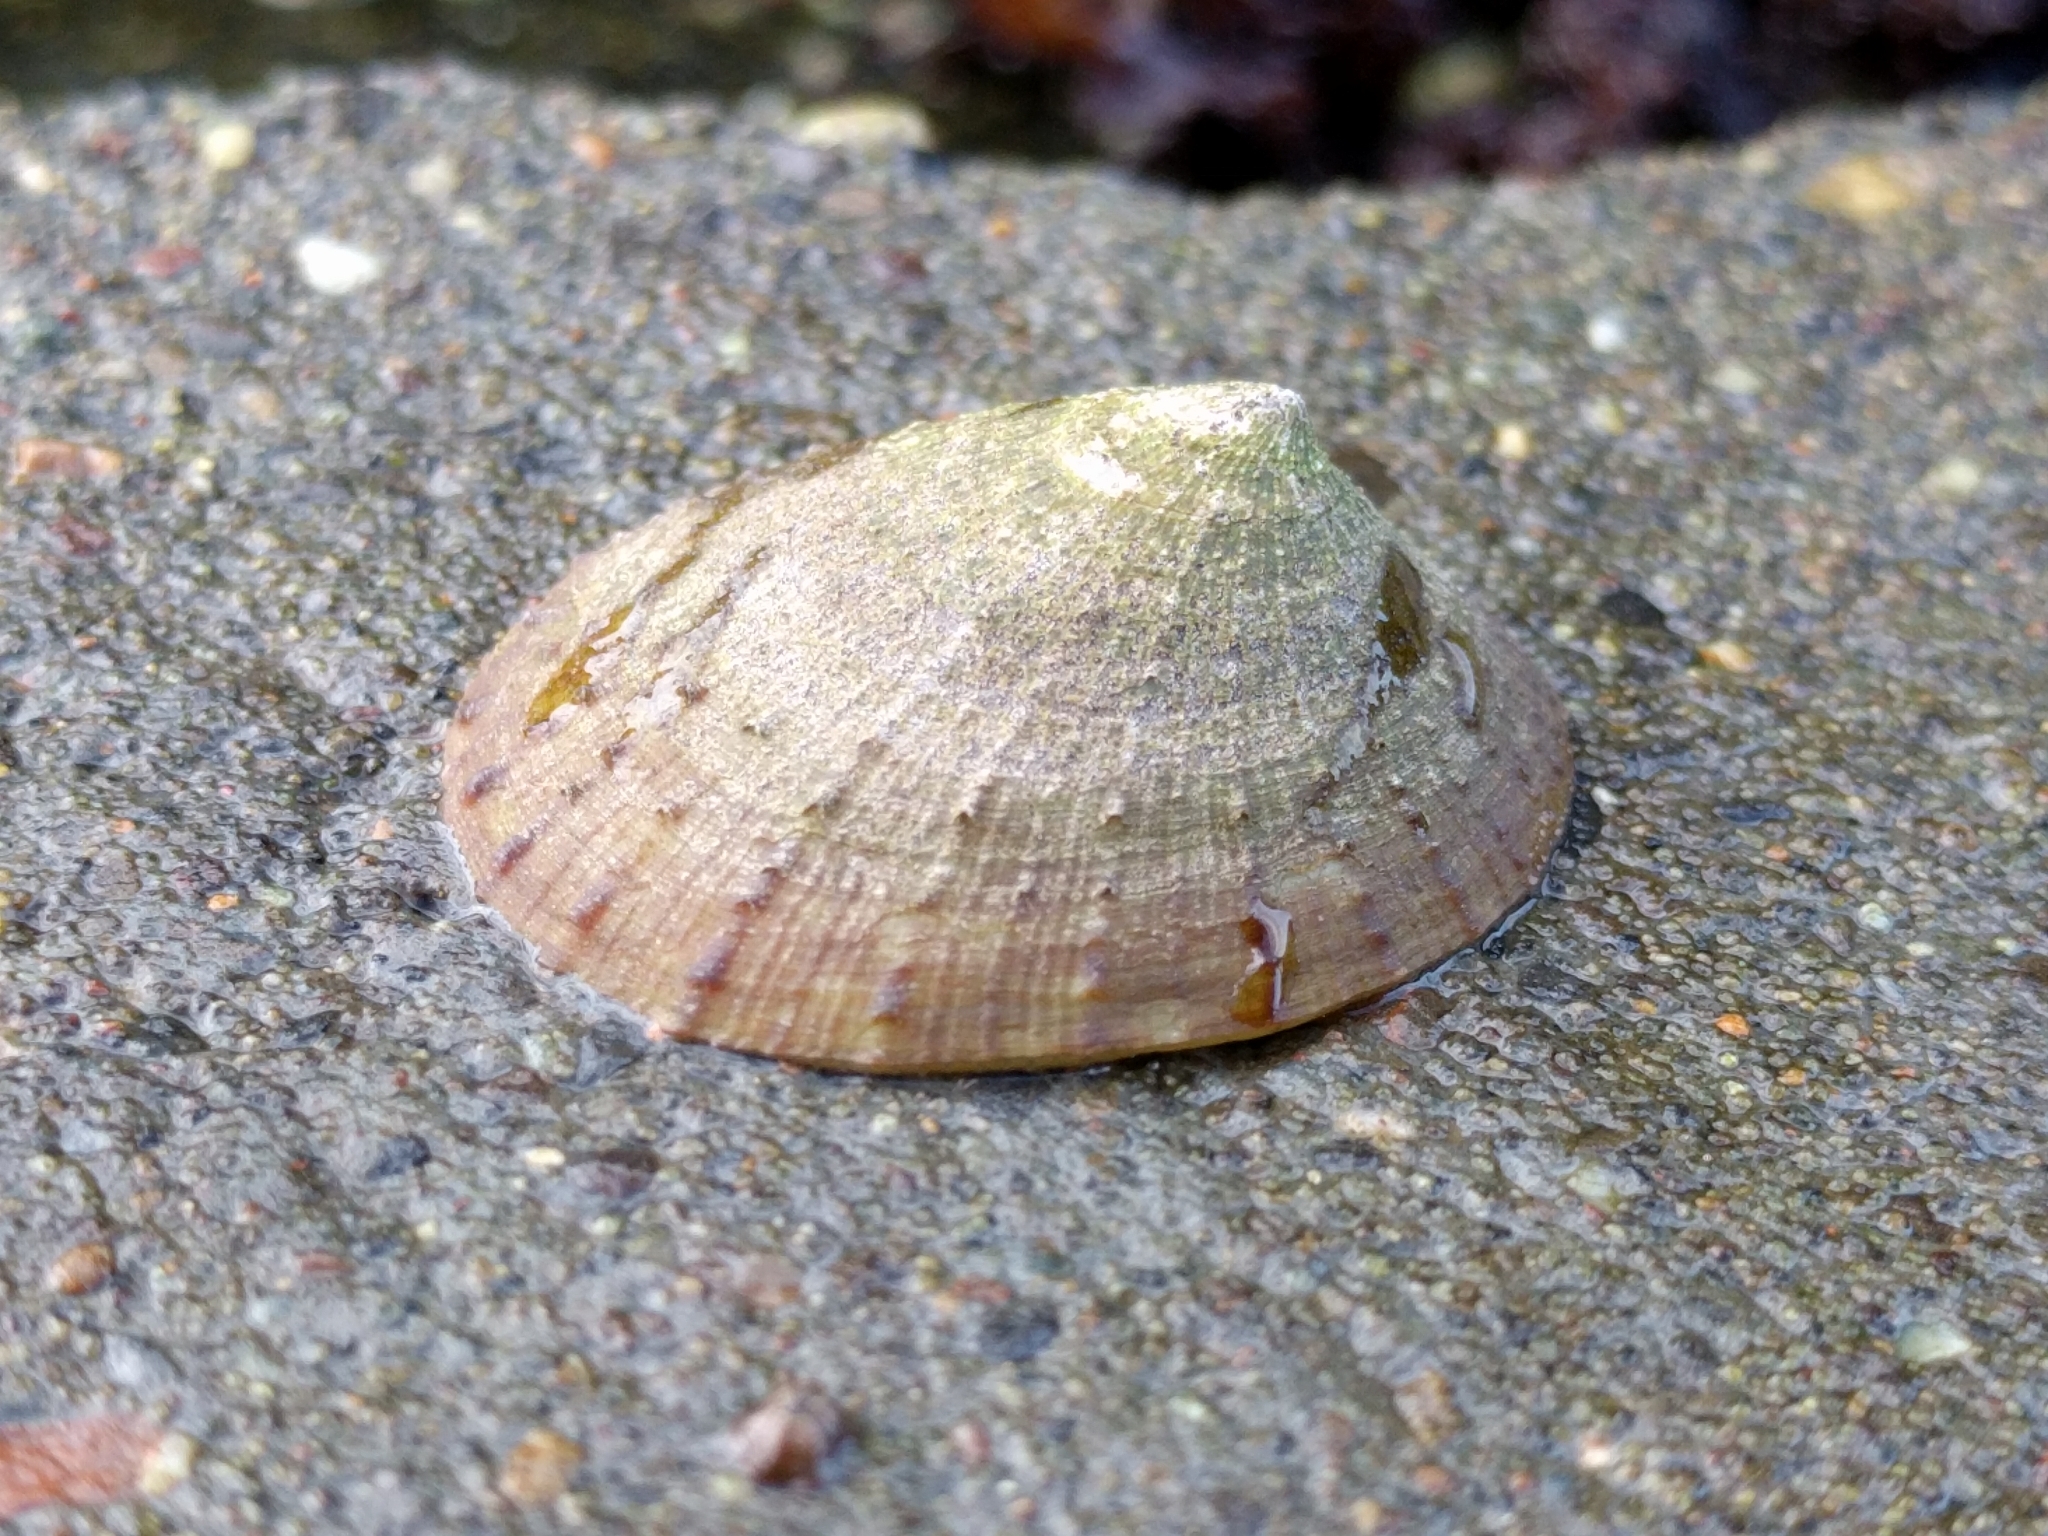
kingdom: Animalia
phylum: Mollusca
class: Gastropoda
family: Lottiidae
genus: Lottia
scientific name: Lottia limatula
